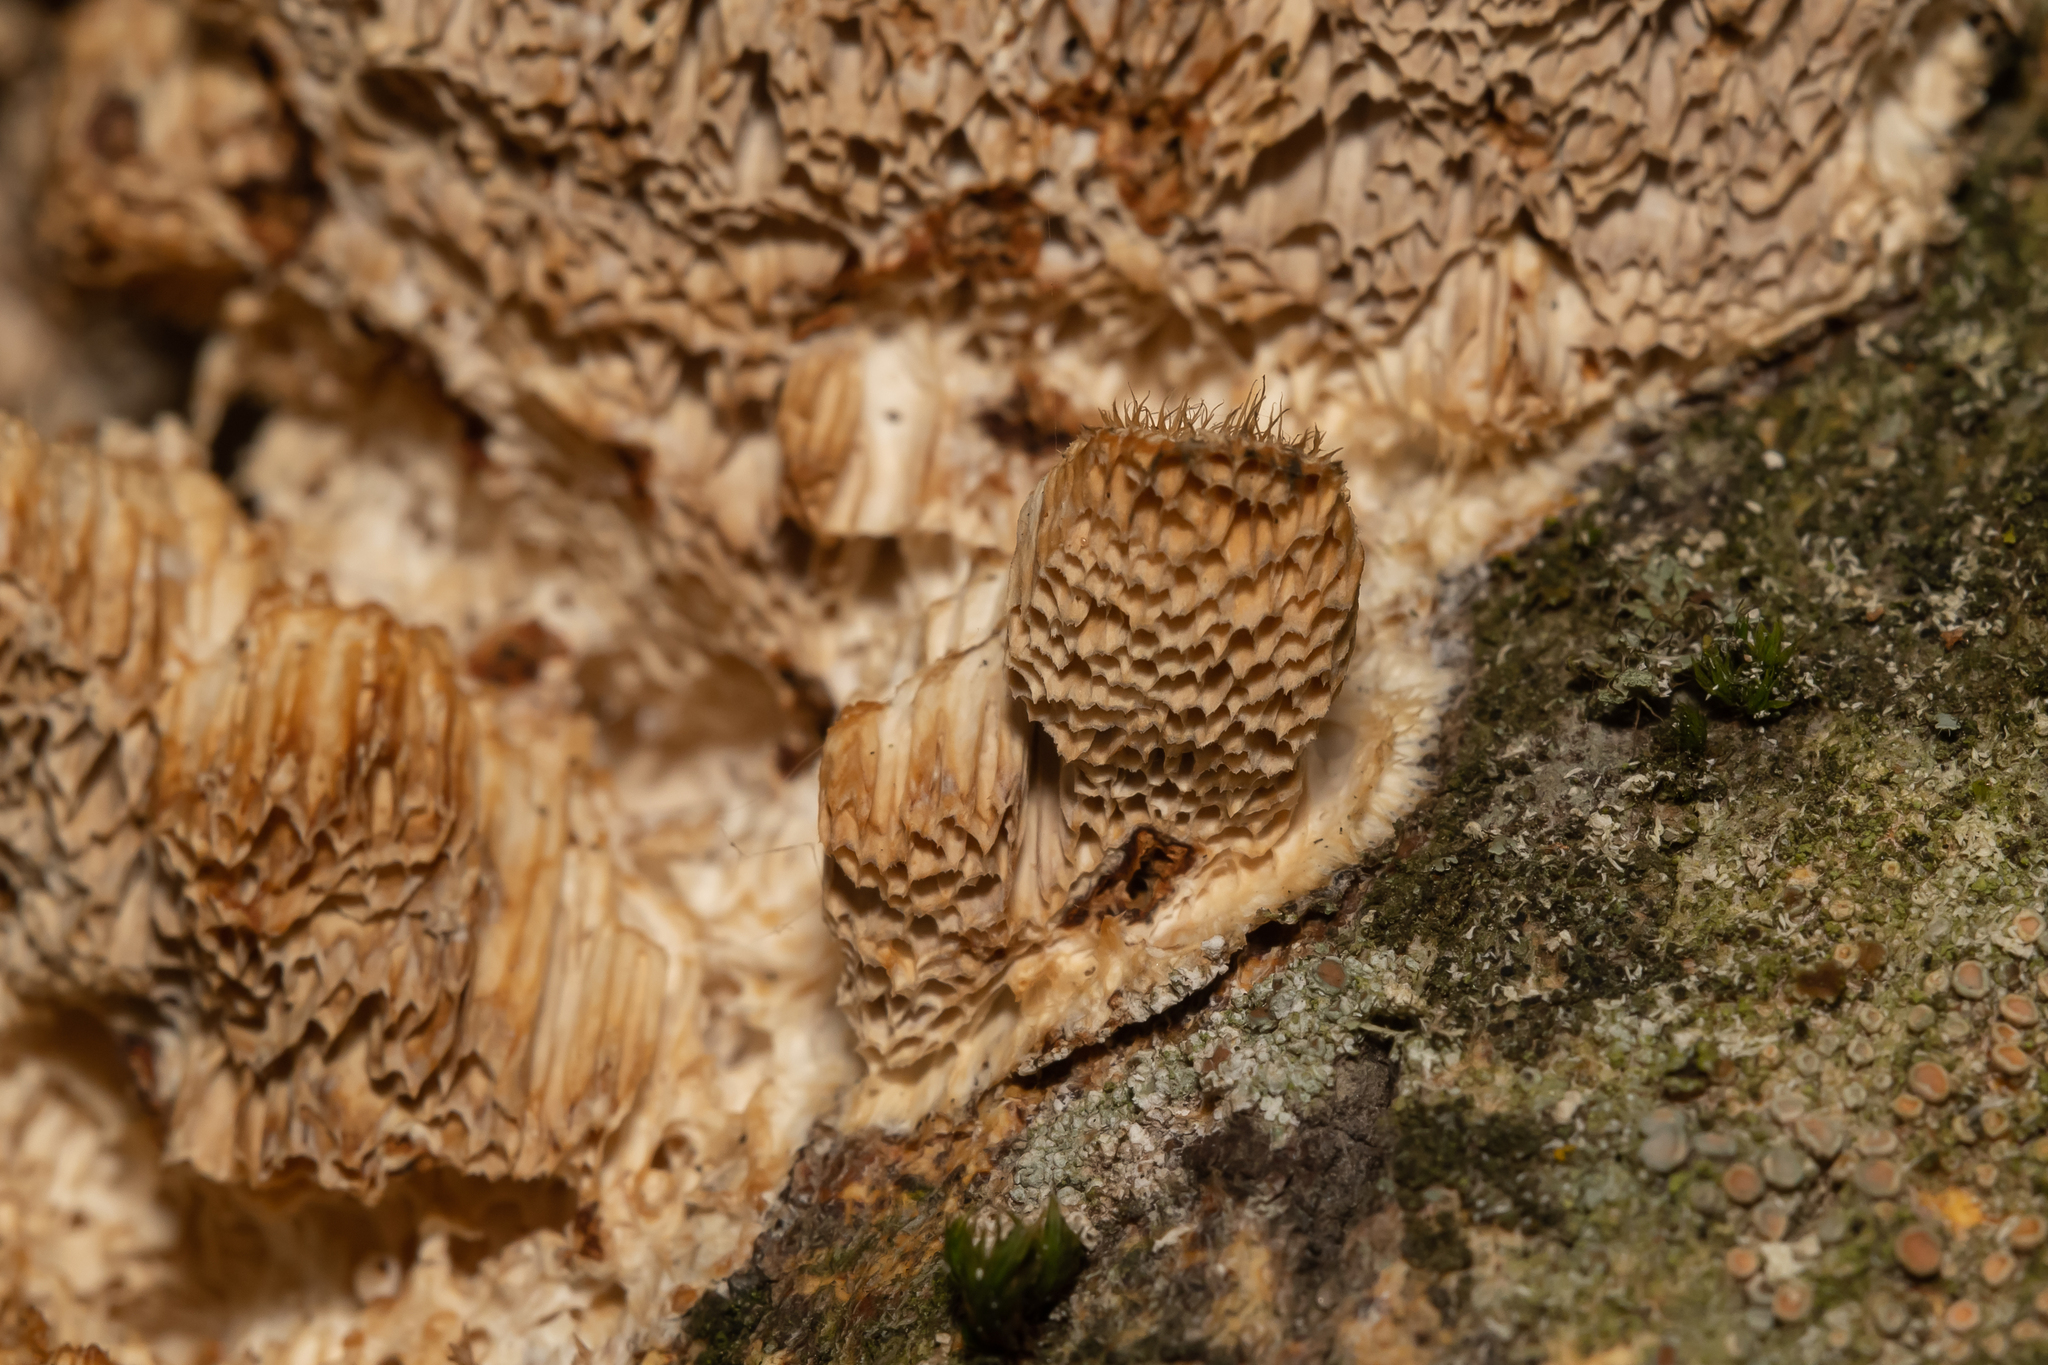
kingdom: Fungi
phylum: Basidiomycota
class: Agaricomycetes
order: Polyporales
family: Polyporaceae
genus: Trametes
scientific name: Trametes trogii
